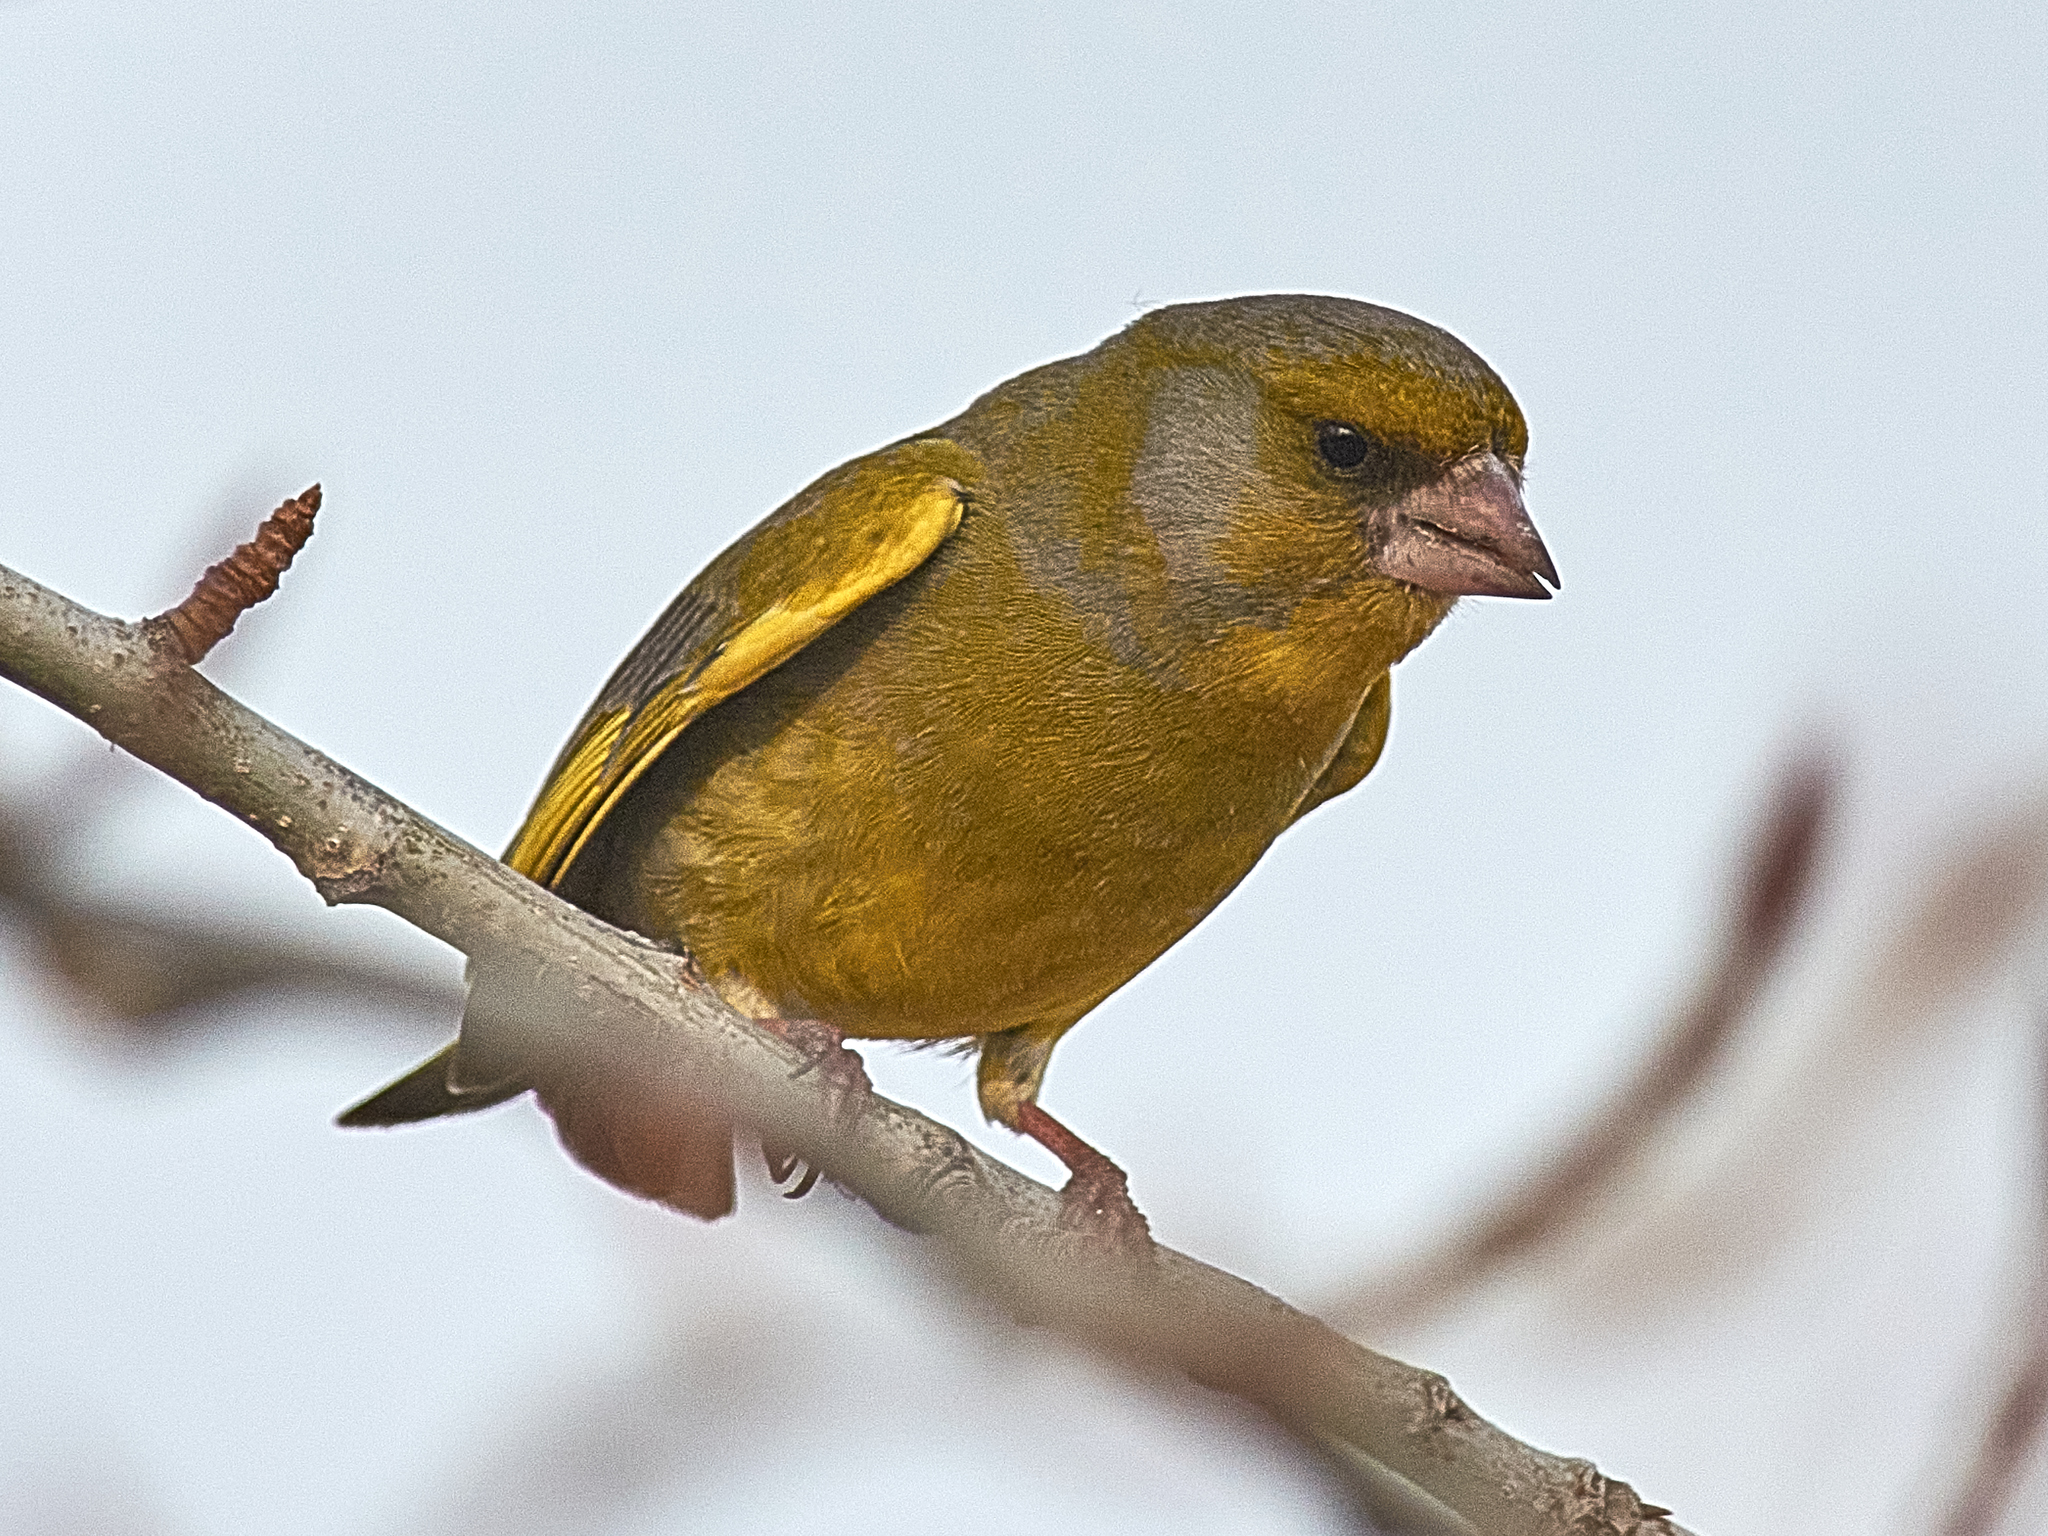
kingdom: Plantae
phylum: Tracheophyta
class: Liliopsida
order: Poales
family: Poaceae
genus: Chloris
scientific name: Chloris chloris
